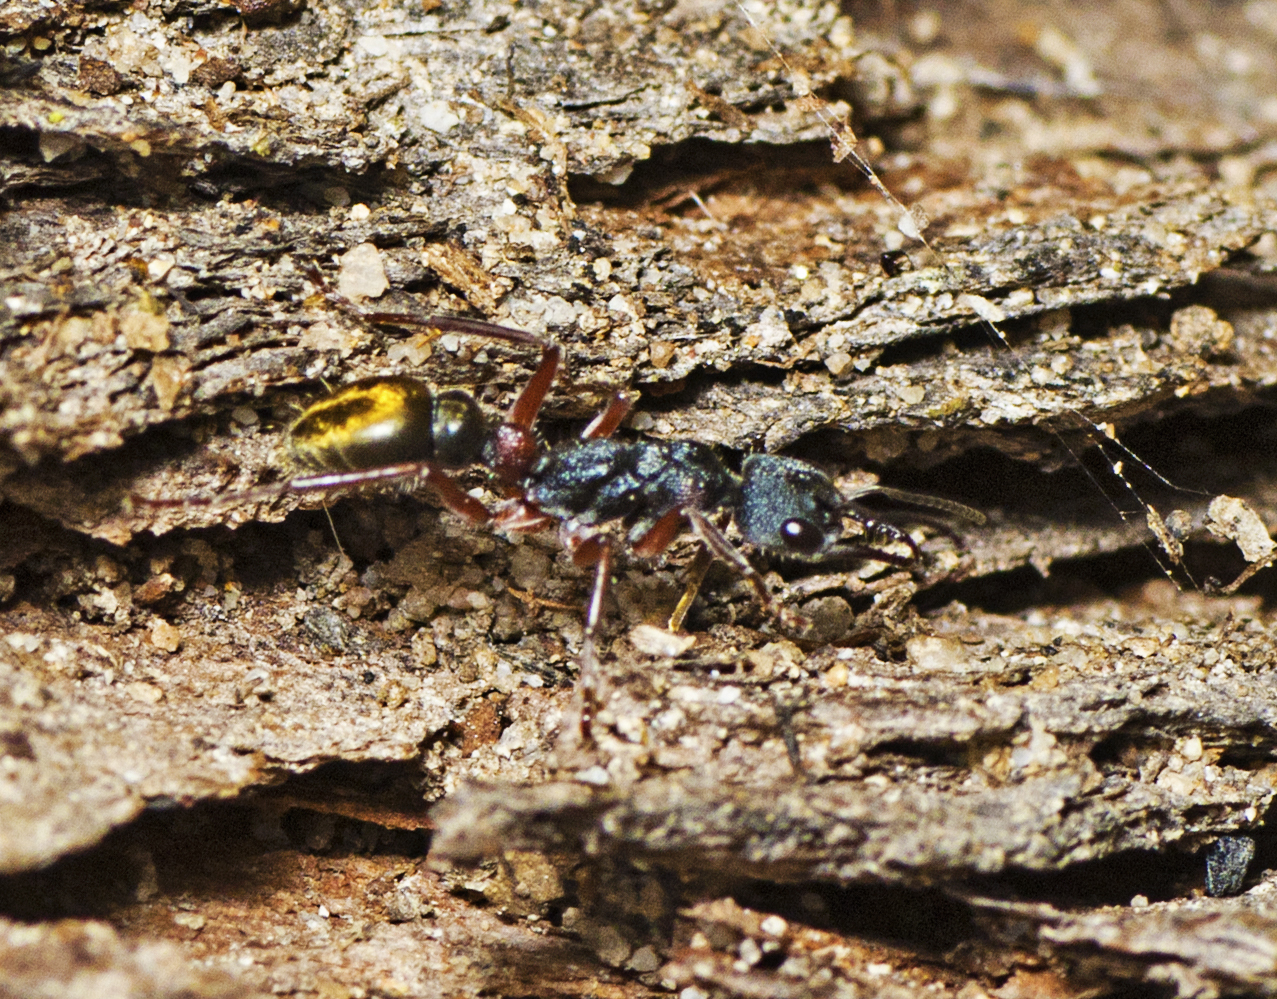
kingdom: Animalia
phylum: Arthropoda
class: Insecta
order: Hymenoptera
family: Formicidae
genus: Myrmecia
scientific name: Myrmecia chrysogaster
